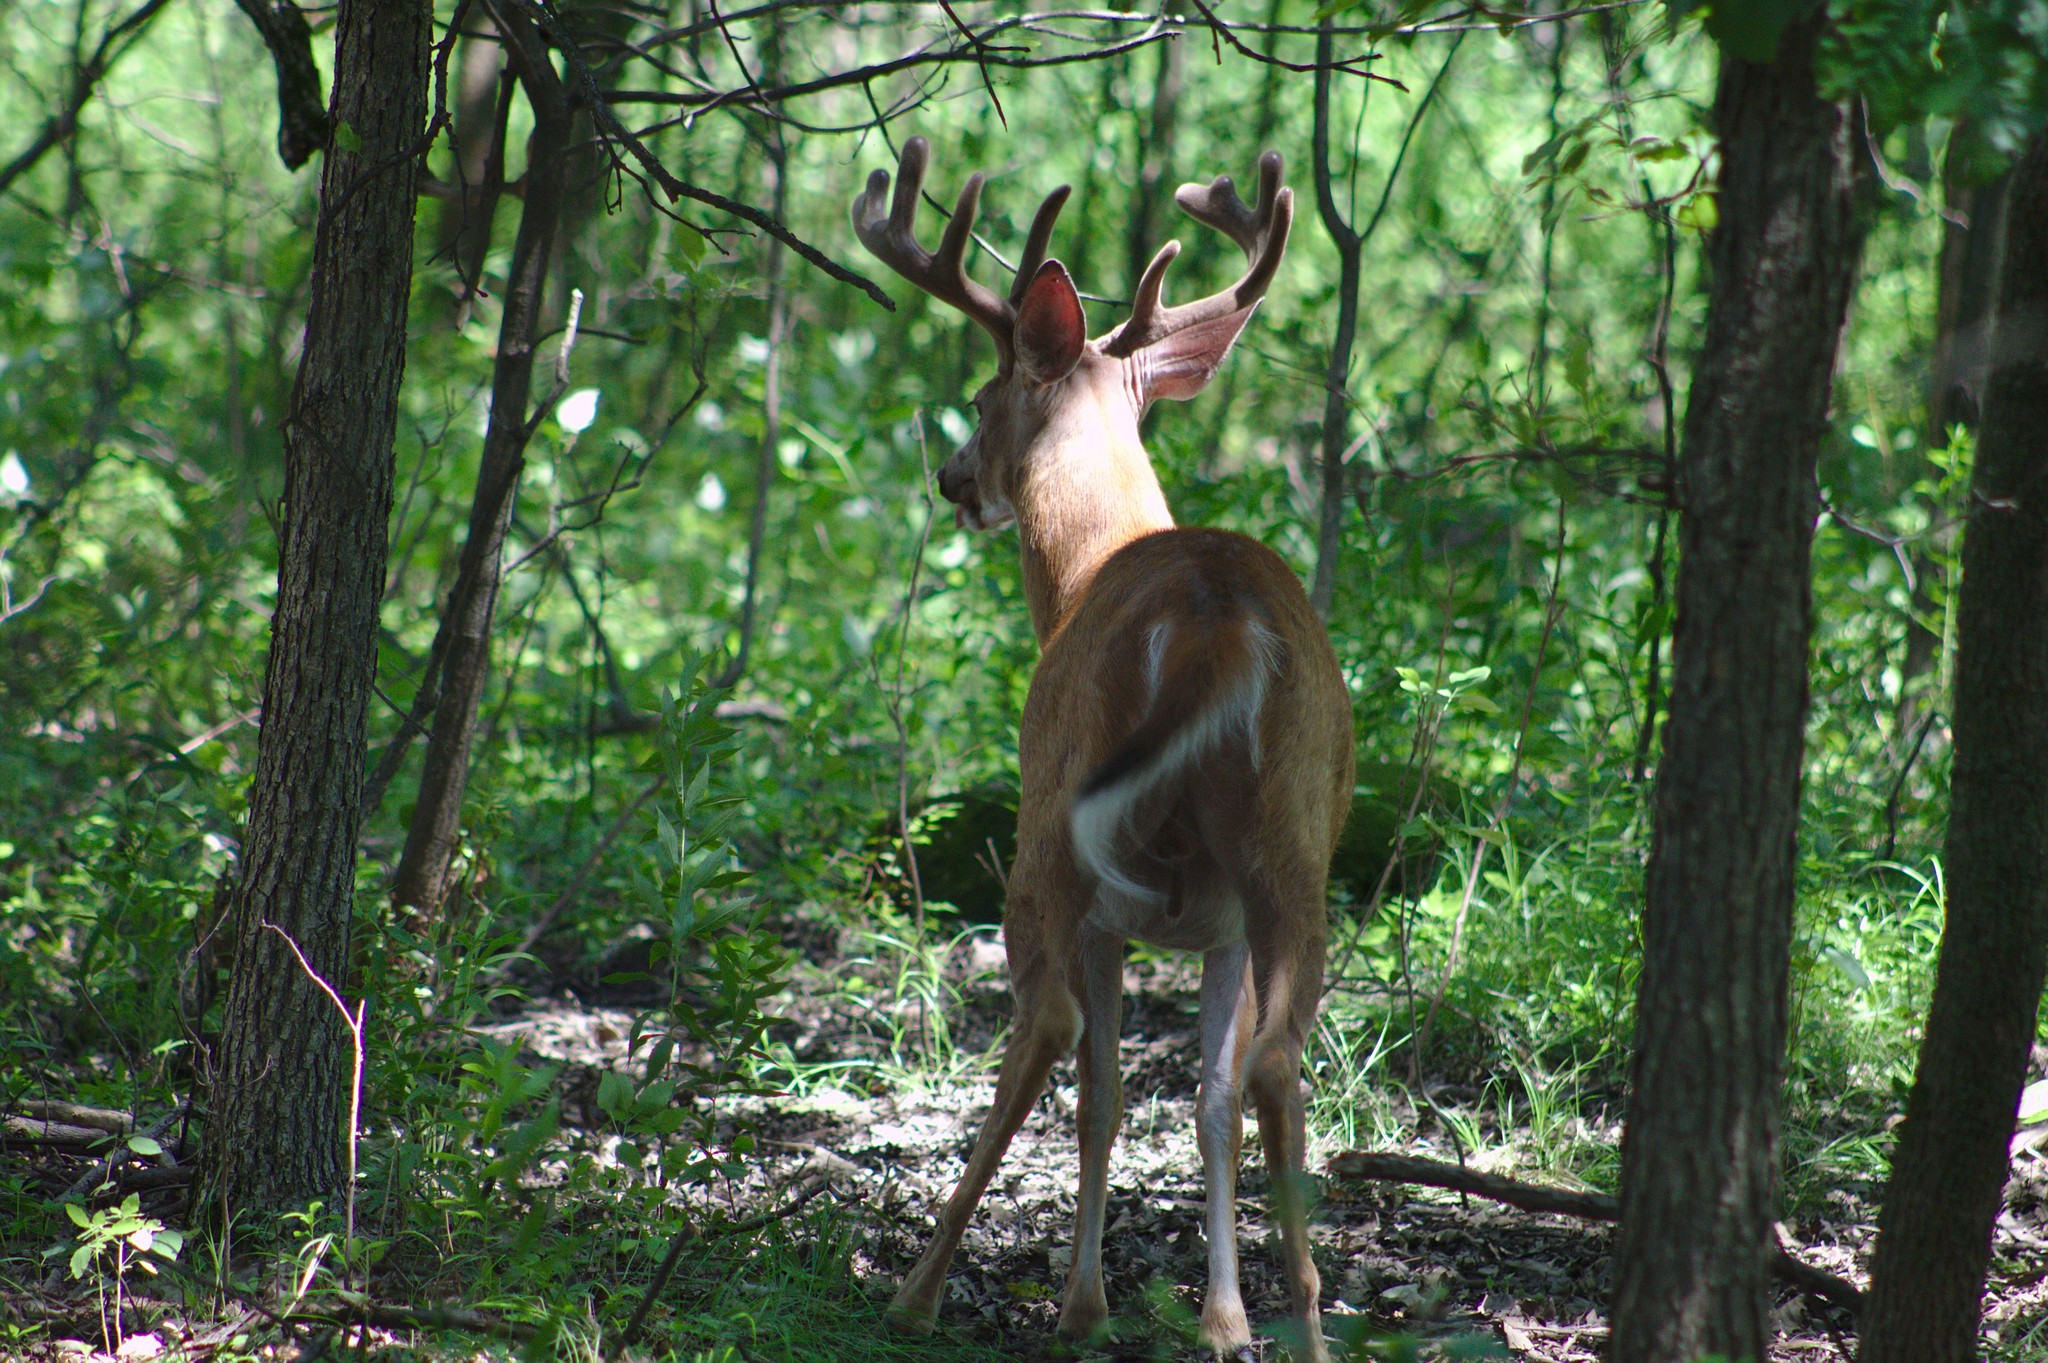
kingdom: Animalia
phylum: Chordata
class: Mammalia
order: Artiodactyla
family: Cervidae
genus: Odocoileus
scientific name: Odocoileus virginianus
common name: White-tailed deer
